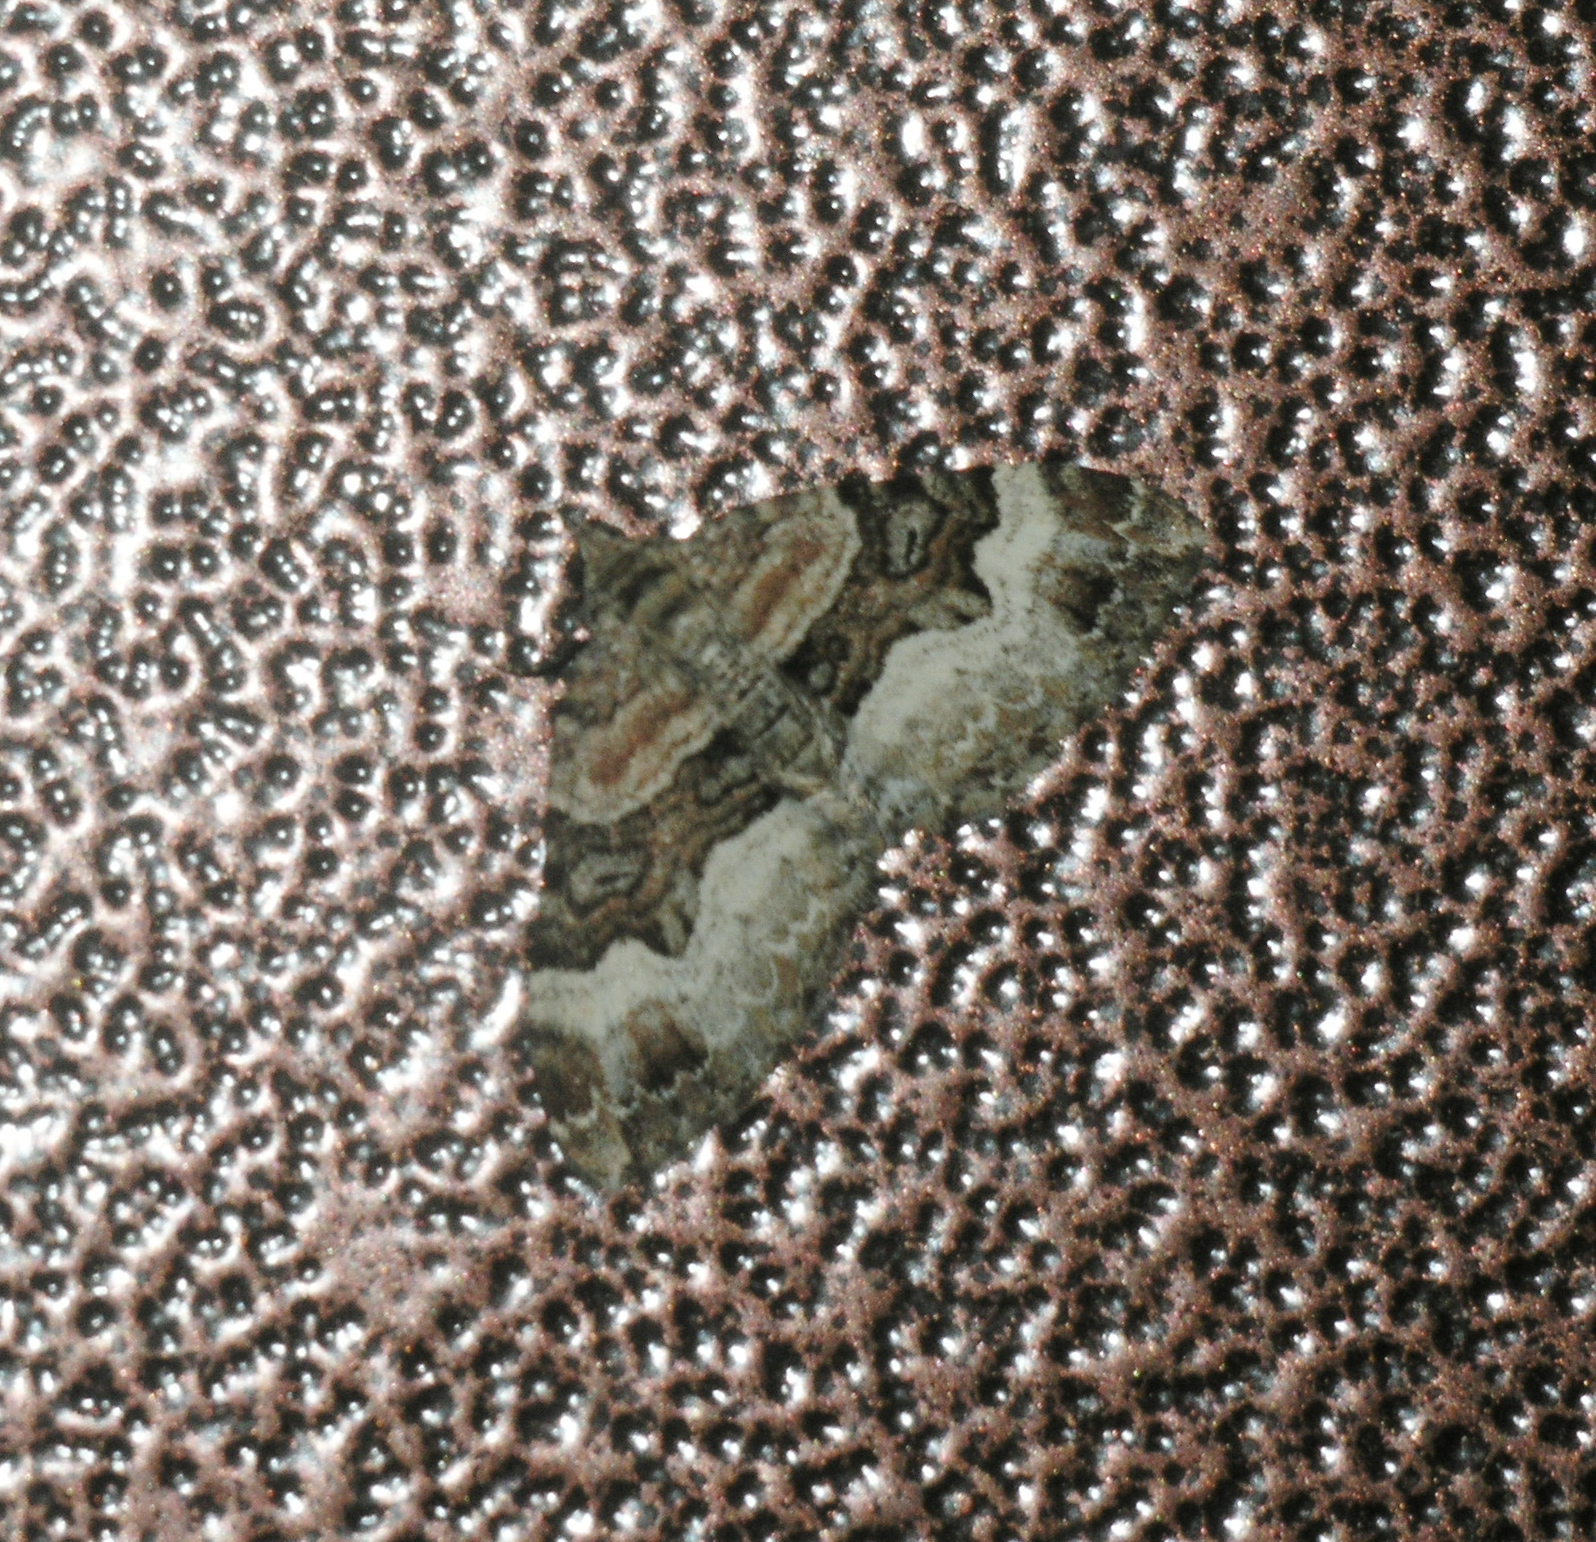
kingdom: Animalia
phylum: Arthropoda
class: Insecta
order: Lepidoptera
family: Geometridae
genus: Xanthorhoe
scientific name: Xanthorhoe biriviata
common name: Balsam carpet
